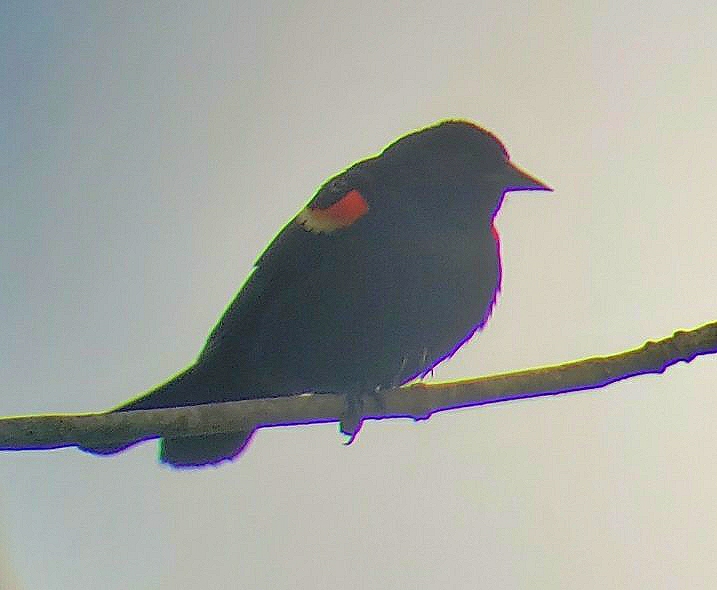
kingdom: Animalia
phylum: Chordata
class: Aves
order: Passeriformes
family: Icteridae
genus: Agelaius
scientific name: Agelaius phoeniceus
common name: Red-winged blackbird
